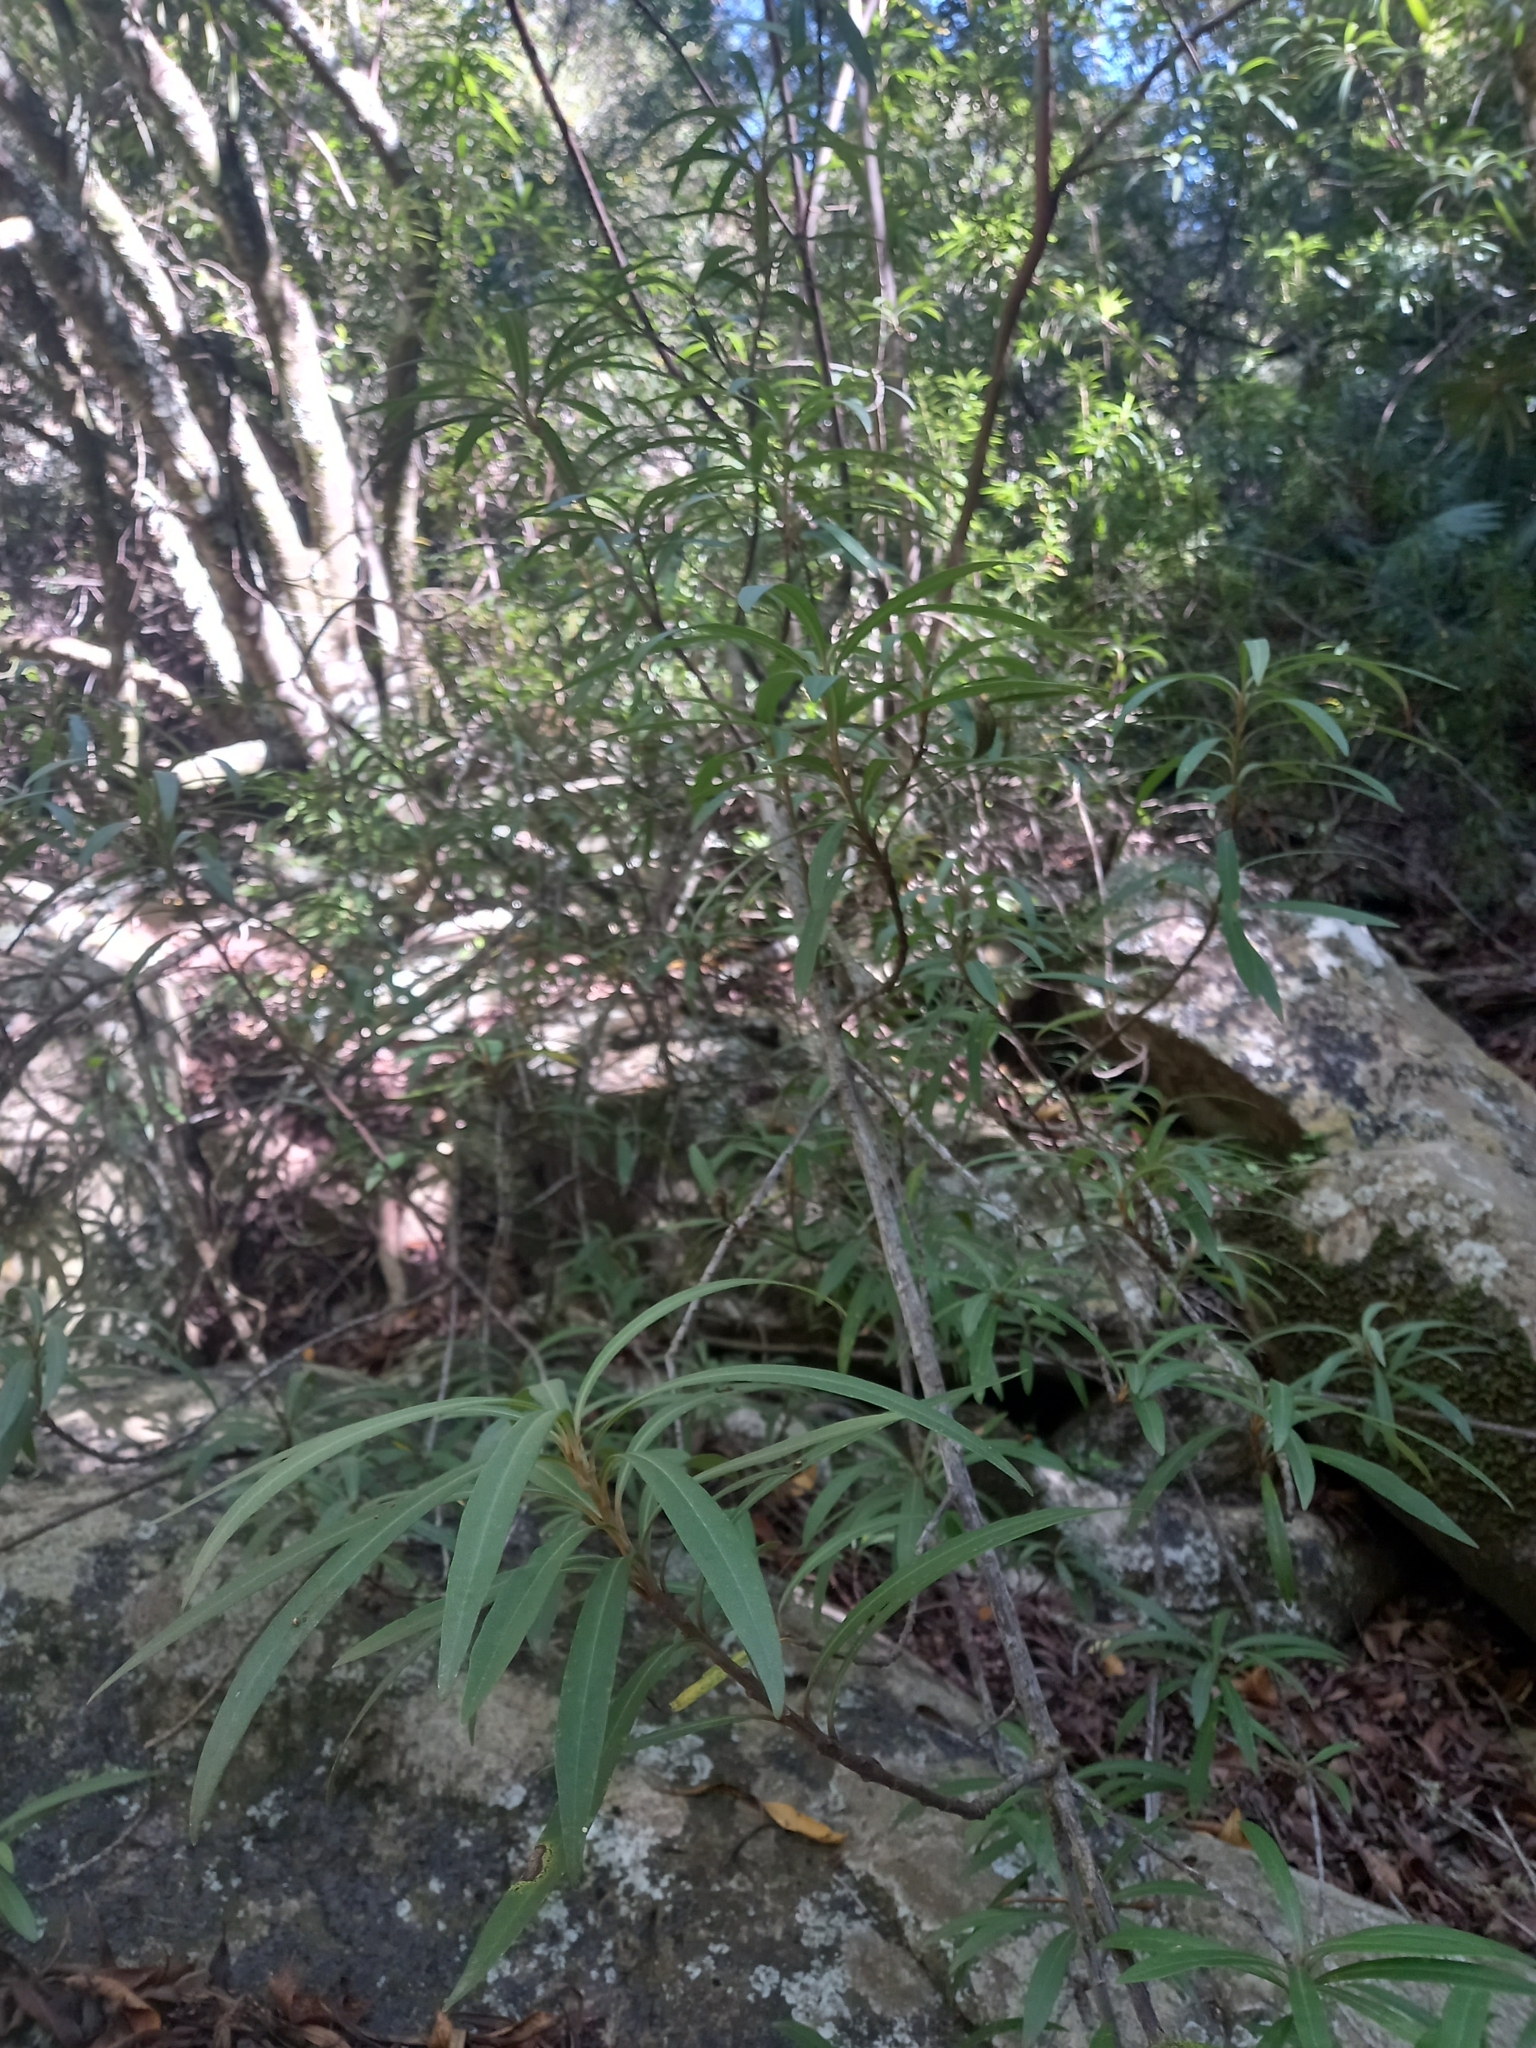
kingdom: Plantae
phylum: Tracheophyta
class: Magnoliopsida
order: Asterales
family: Asteraceae
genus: Brachylaena
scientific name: Brachylaena neriifolia
